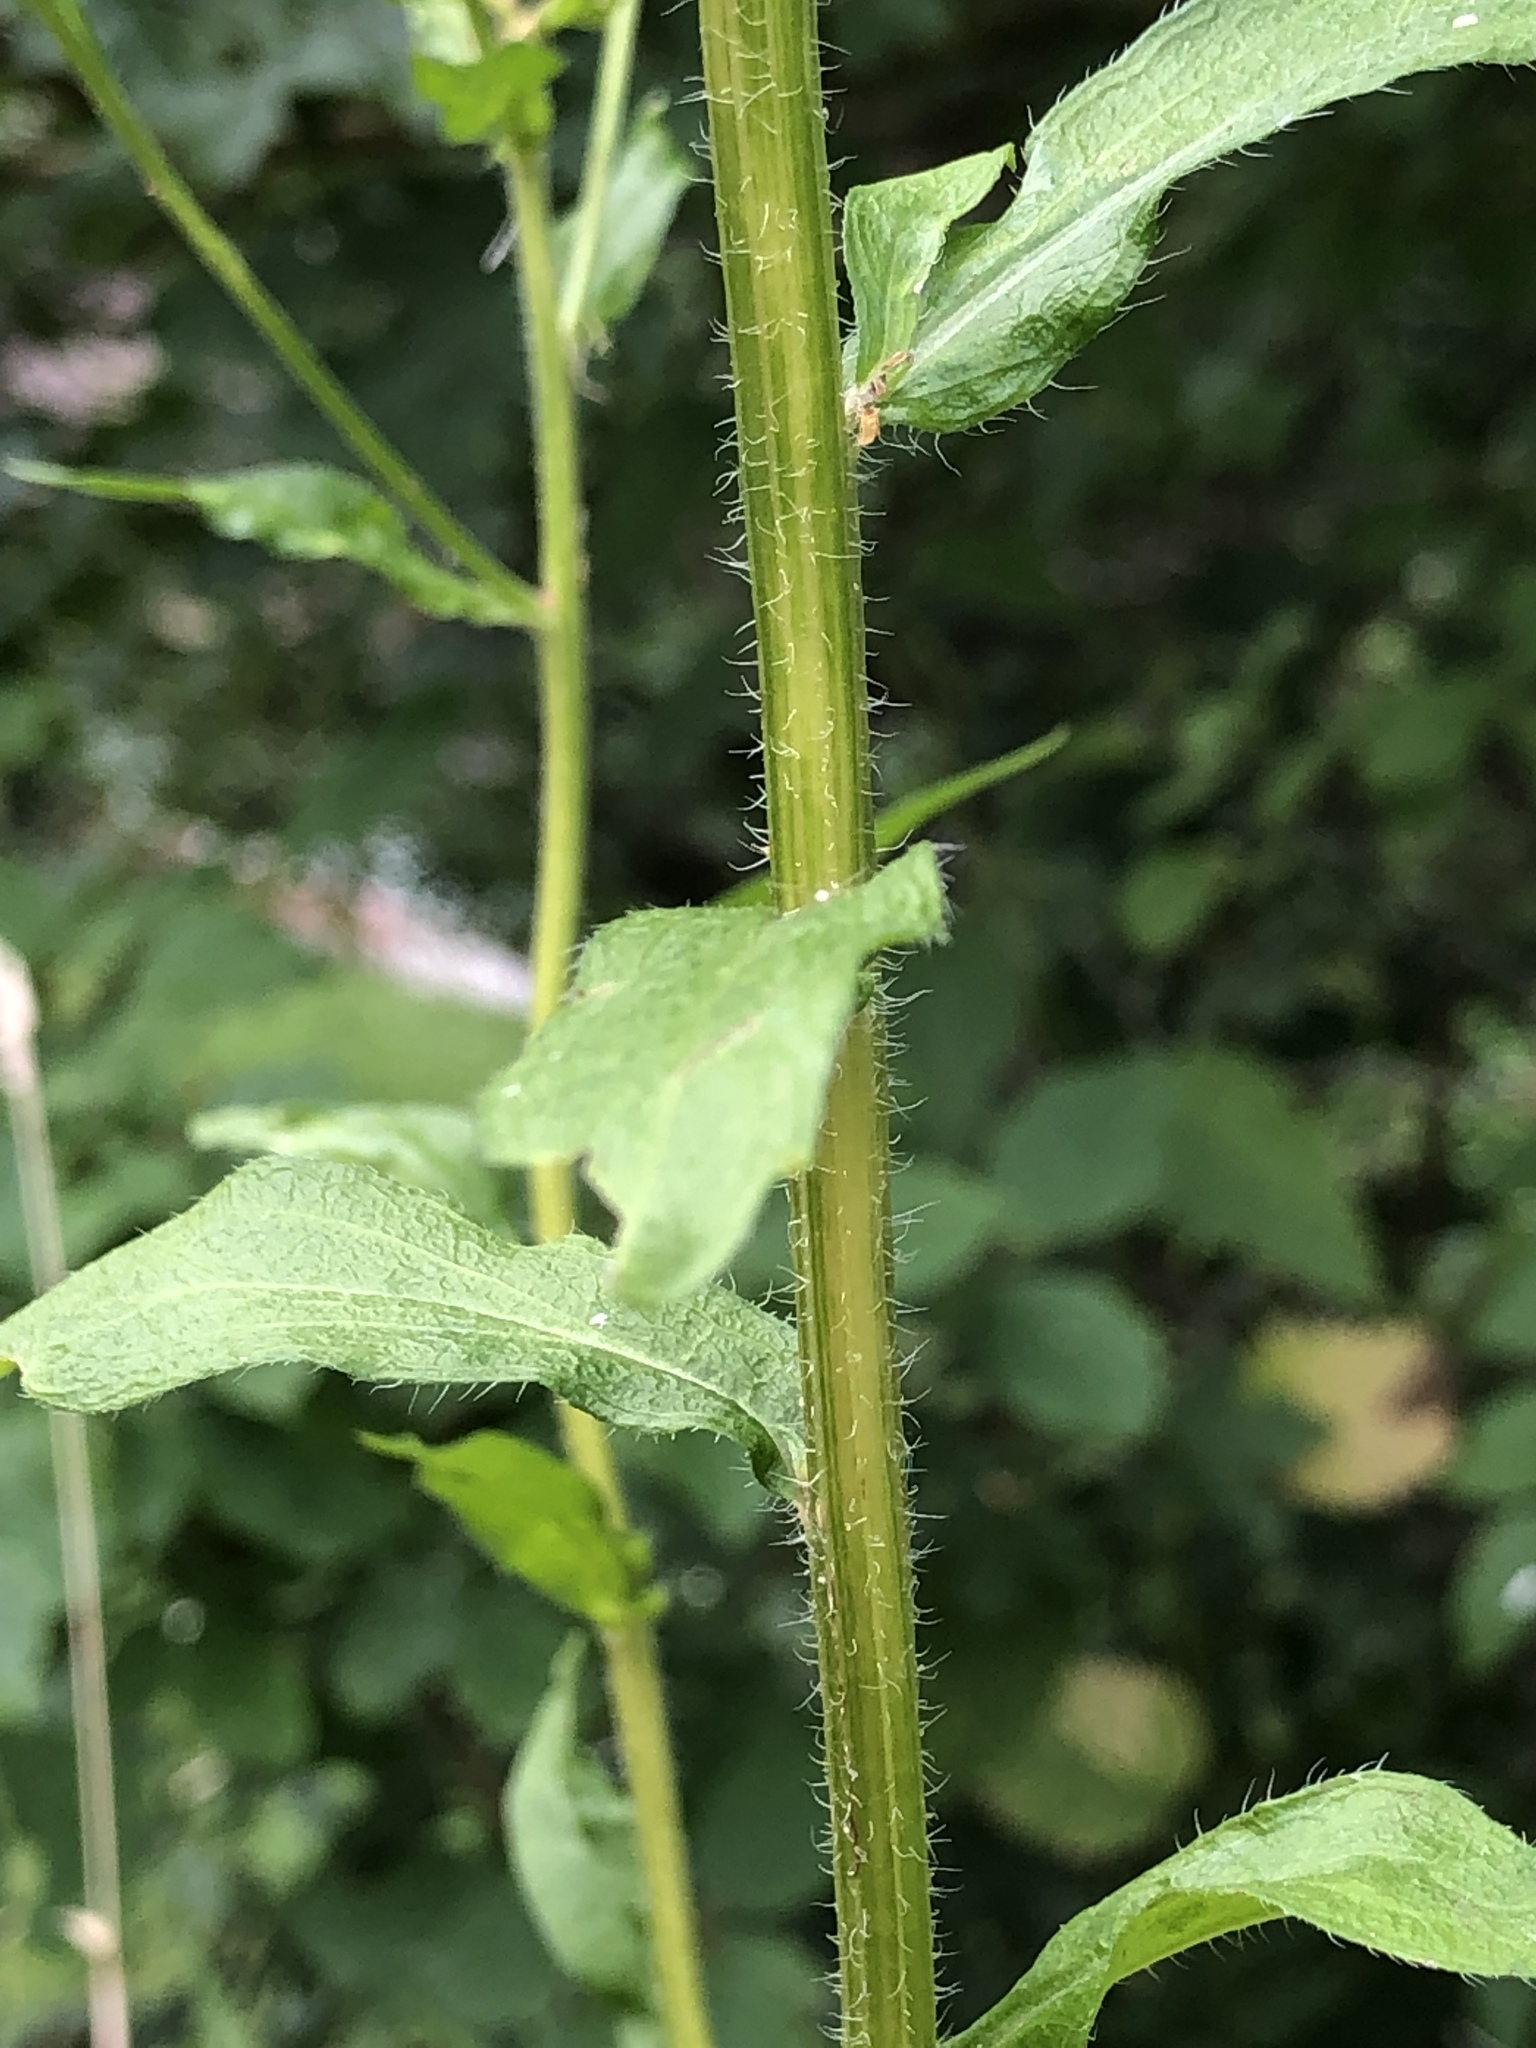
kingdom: Plantae
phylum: Tracheophyta
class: Magnoliopsida
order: Asterales
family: Asteraceae
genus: Erigeron
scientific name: Erigeron annuus
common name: Tall fleabane
